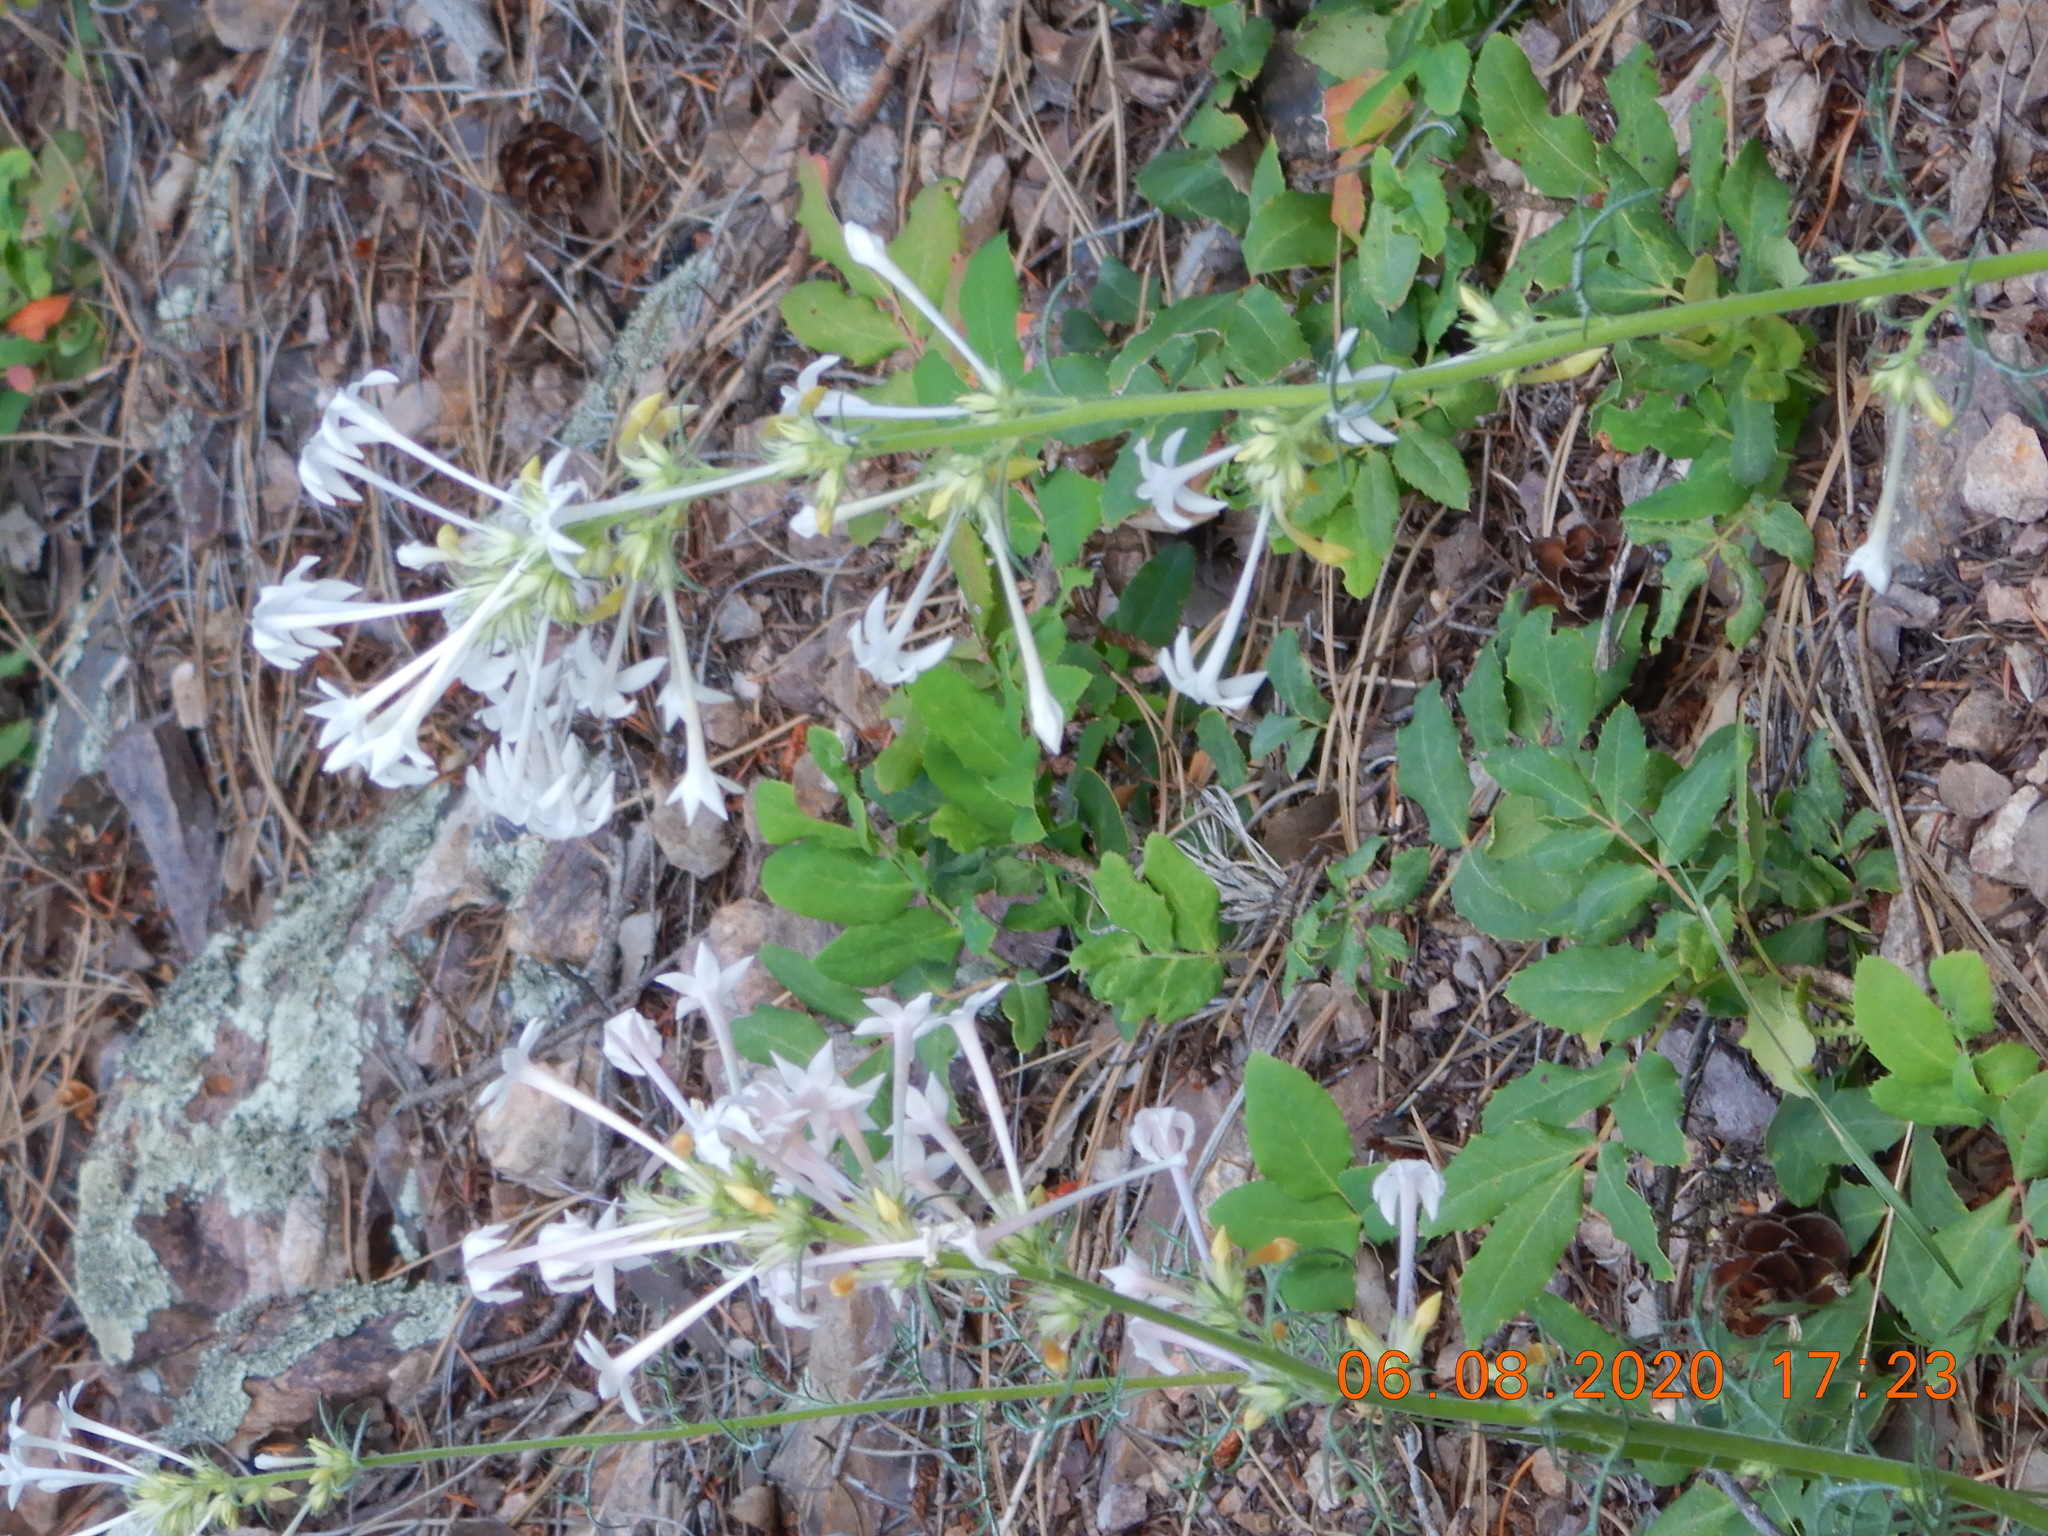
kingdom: Plantae
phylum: Tracheophyta
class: Magnoliopsida
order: Ericales
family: Polemoniaceae
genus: Ipomopsis
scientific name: Ipomopsis aggregata
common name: Scarlet gilia
